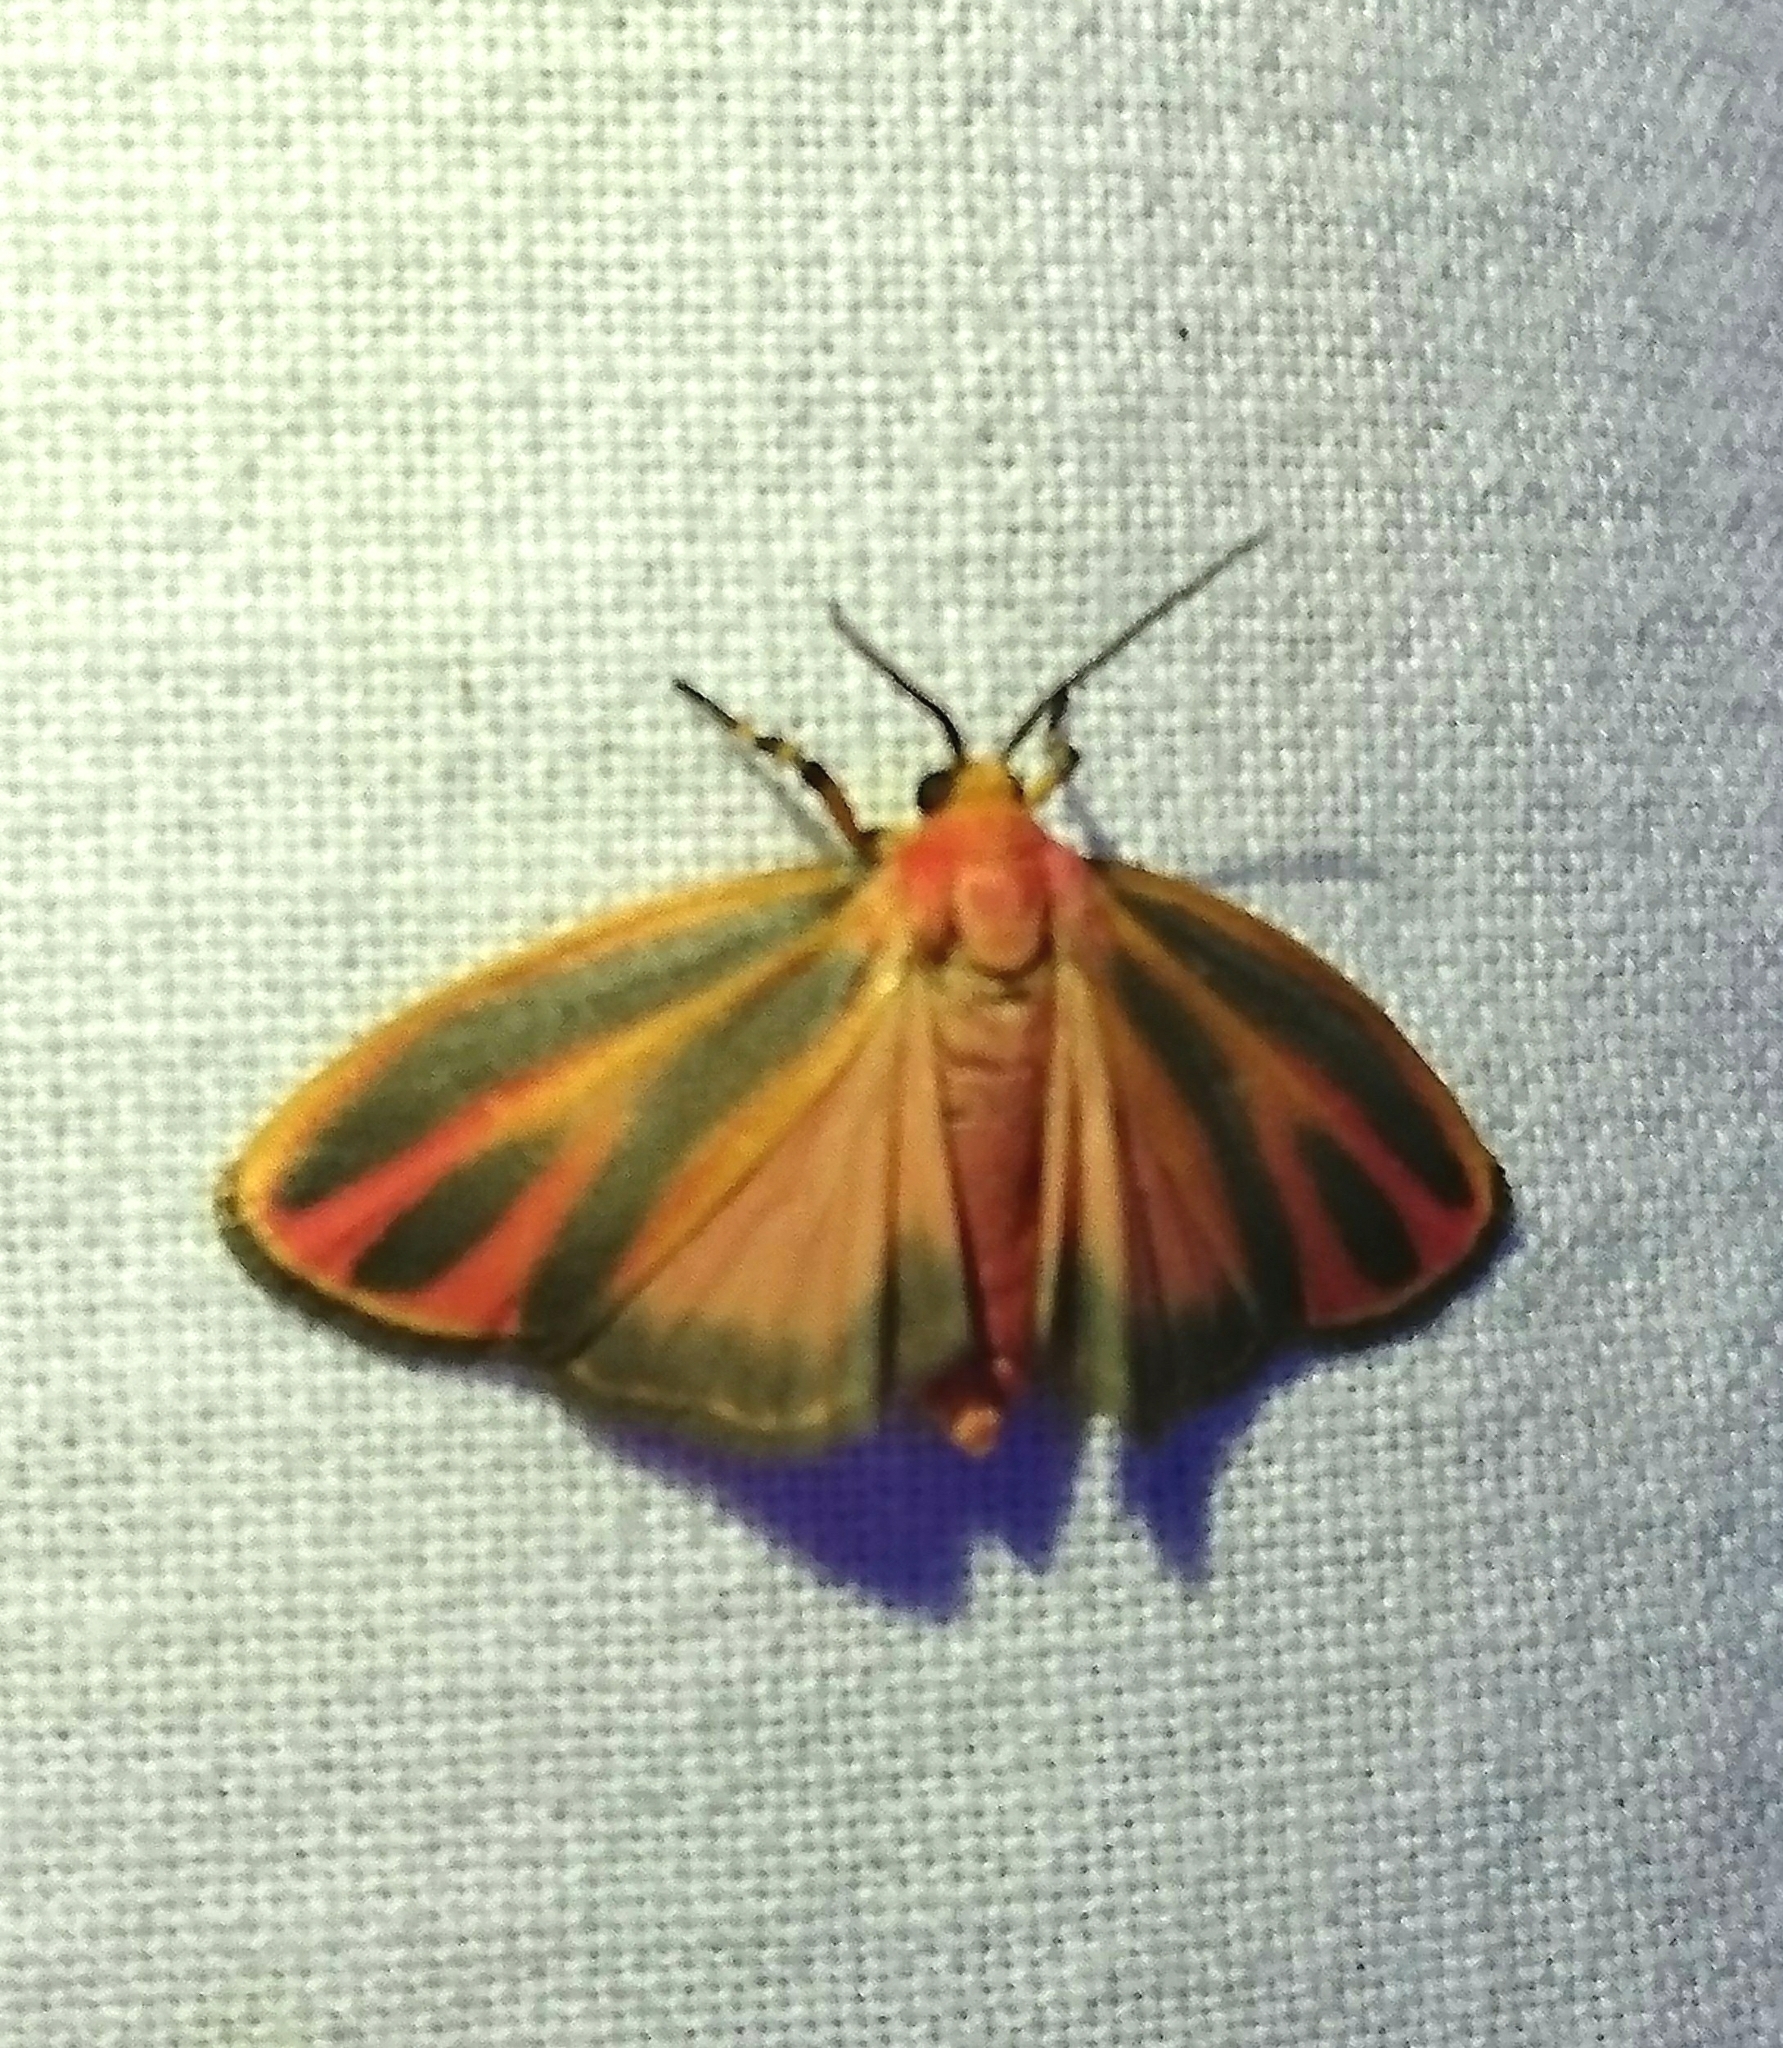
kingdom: Animalia
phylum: Arthropoda
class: Insecta
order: Lepidoptera
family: Erebidae
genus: Hypoprepia
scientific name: Hypoprepia fucosa
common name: Painted lichen moth
